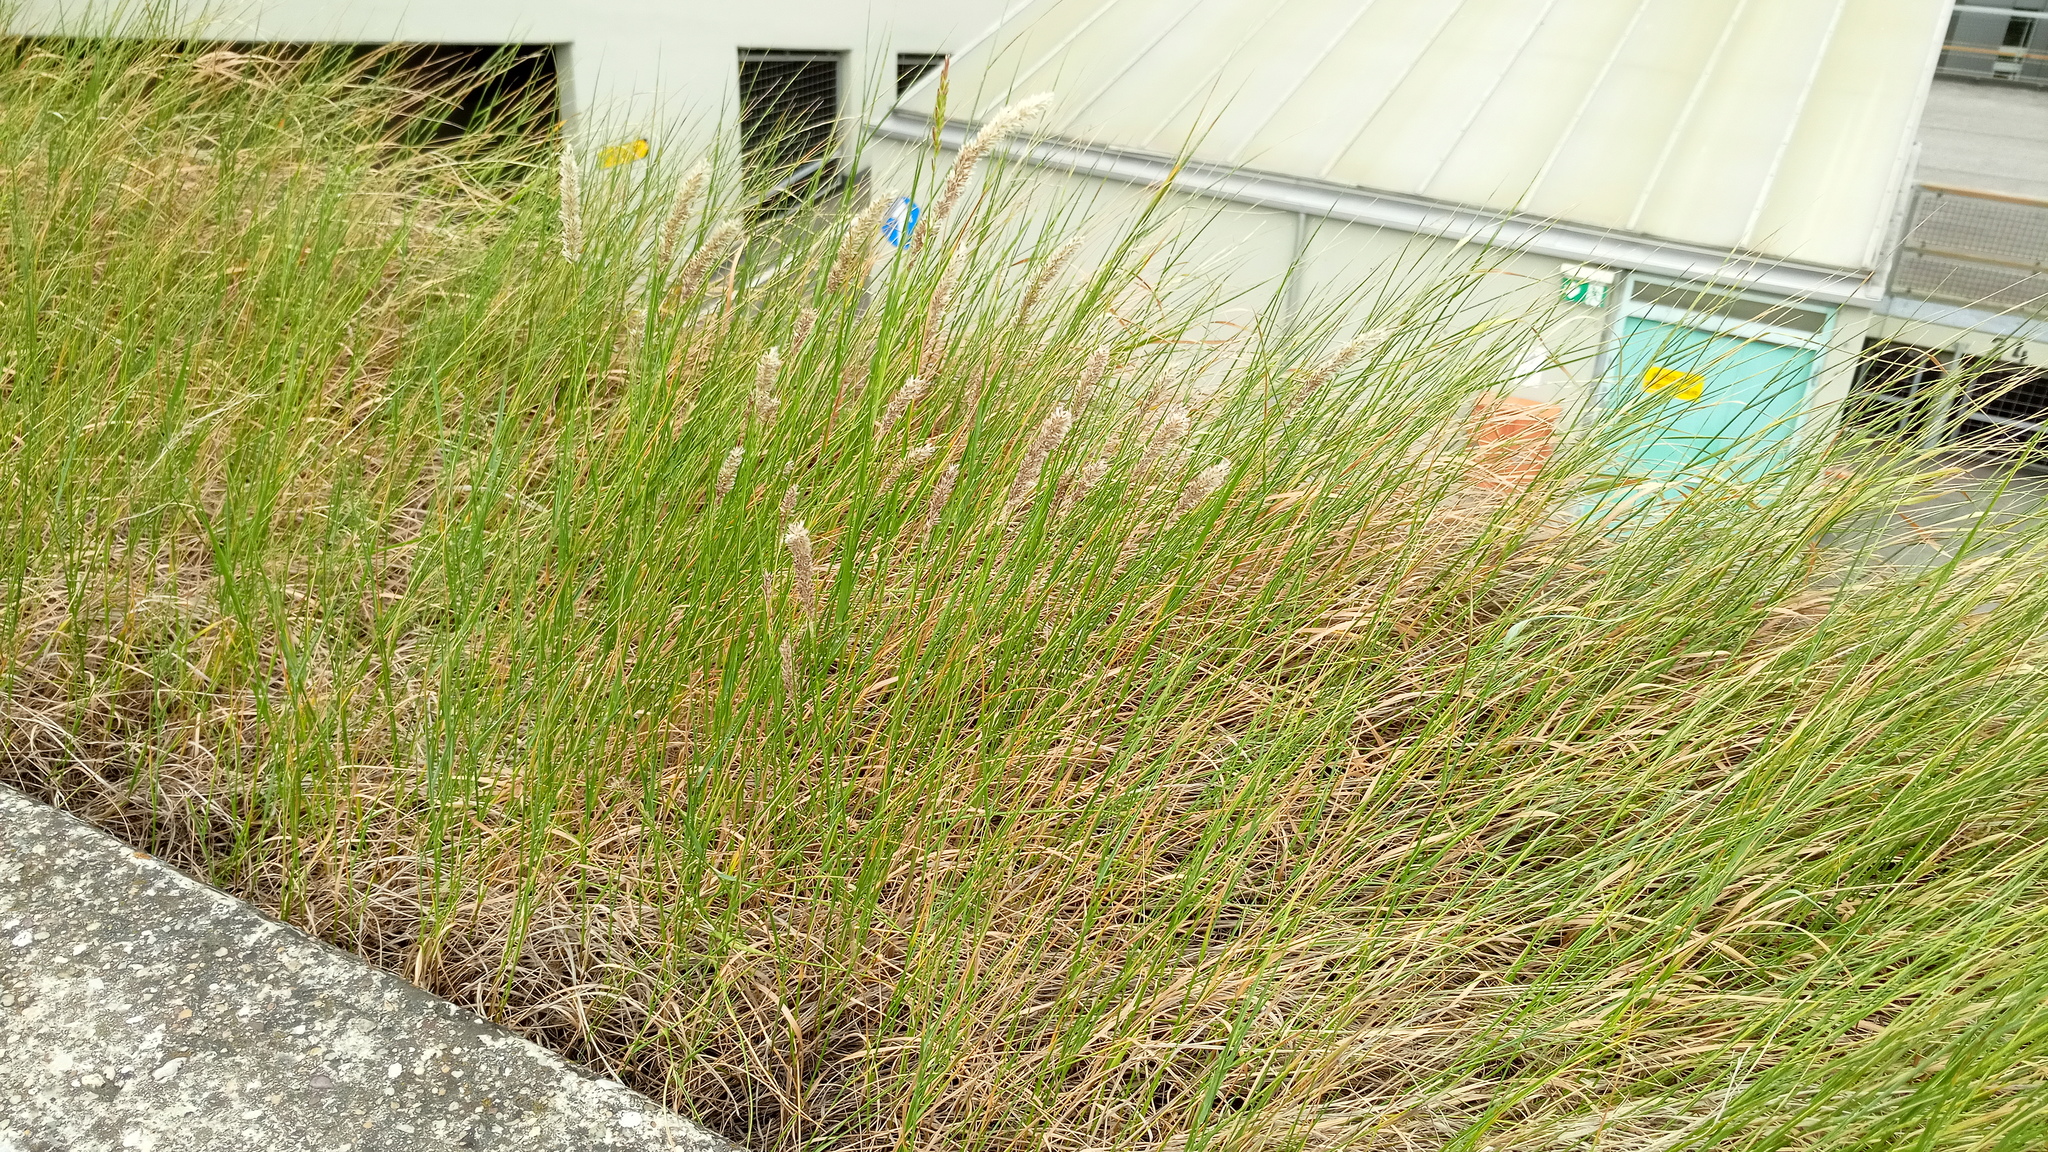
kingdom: Plantae
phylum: Tracheophyta
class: Liliopsida
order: Poales
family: Poaceae
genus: Melica
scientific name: Melica transsilvanica
